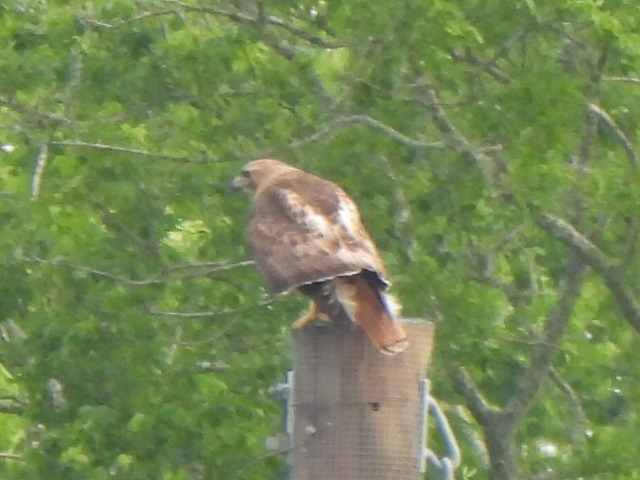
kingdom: Animalia
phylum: Chordata
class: Aves
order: Accipitriformes
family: Accipitridae
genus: Buteo
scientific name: Buteo jamaicensis
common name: Red-tailed hawk
